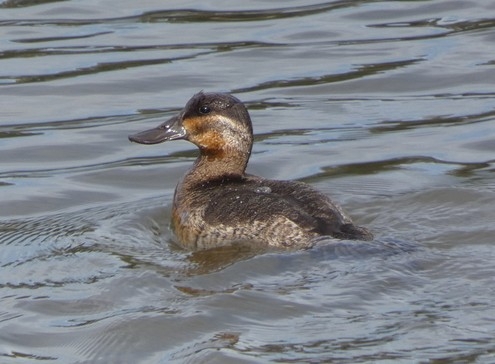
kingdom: Animalia
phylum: Chordata
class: Aves
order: Anseriformes
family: Anatidae
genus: Oxyura
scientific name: Oxyura jamaicensis
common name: Ruddy duck
